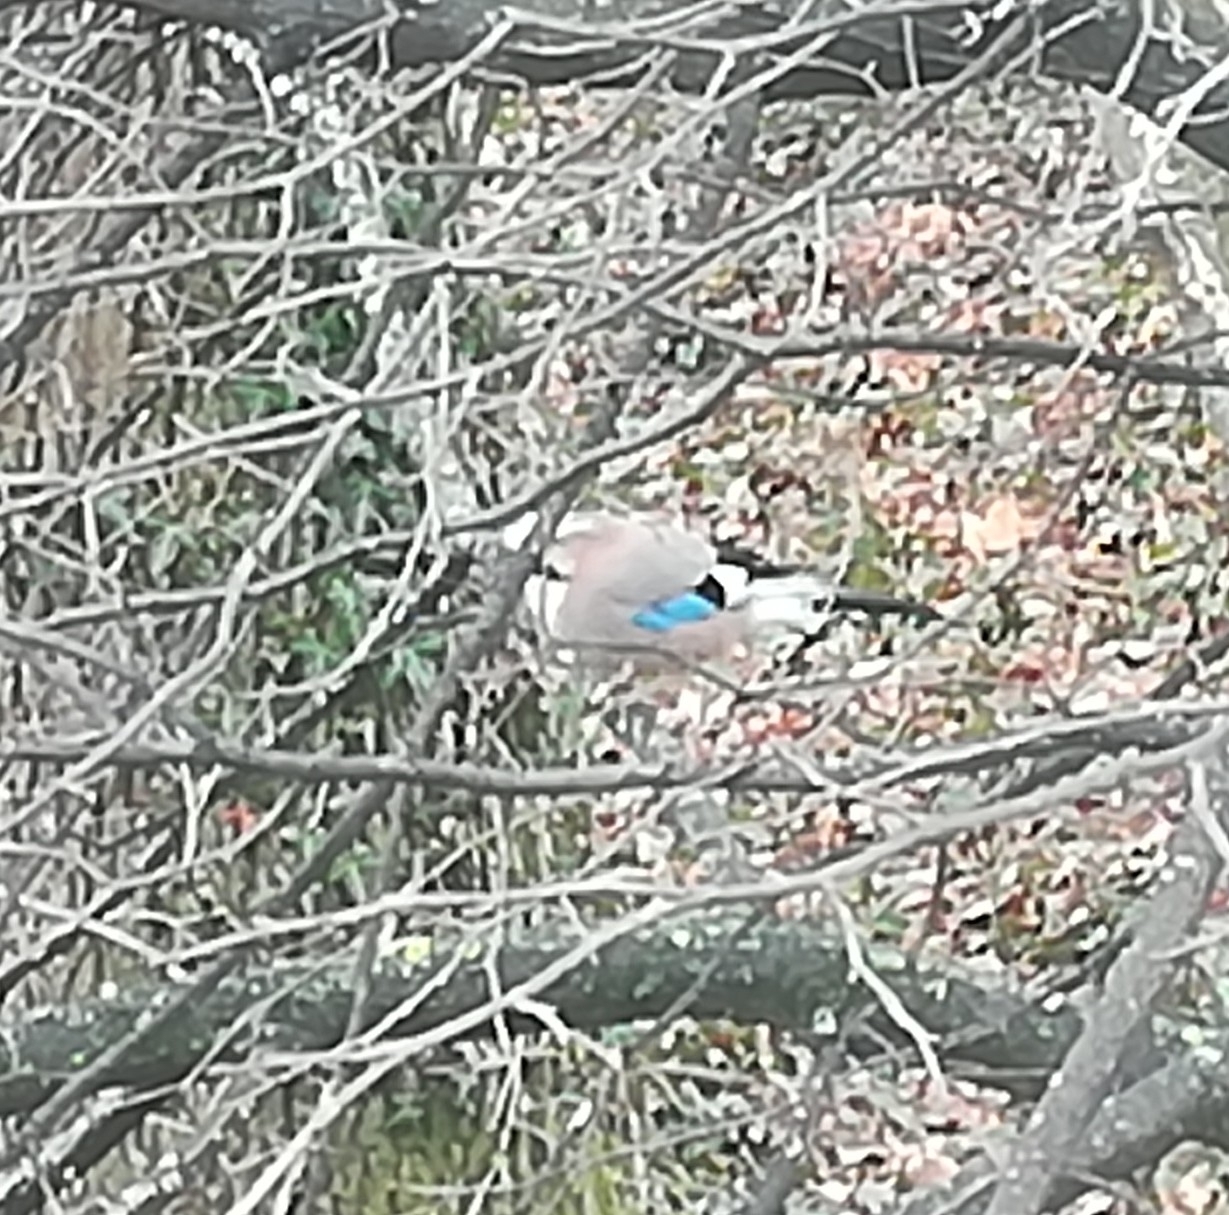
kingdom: Animalia
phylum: Chordata
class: Aves
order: Passeriformes
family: Corvidae
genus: Garrulus
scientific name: Garrulus glandarius
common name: Eurasian jay
